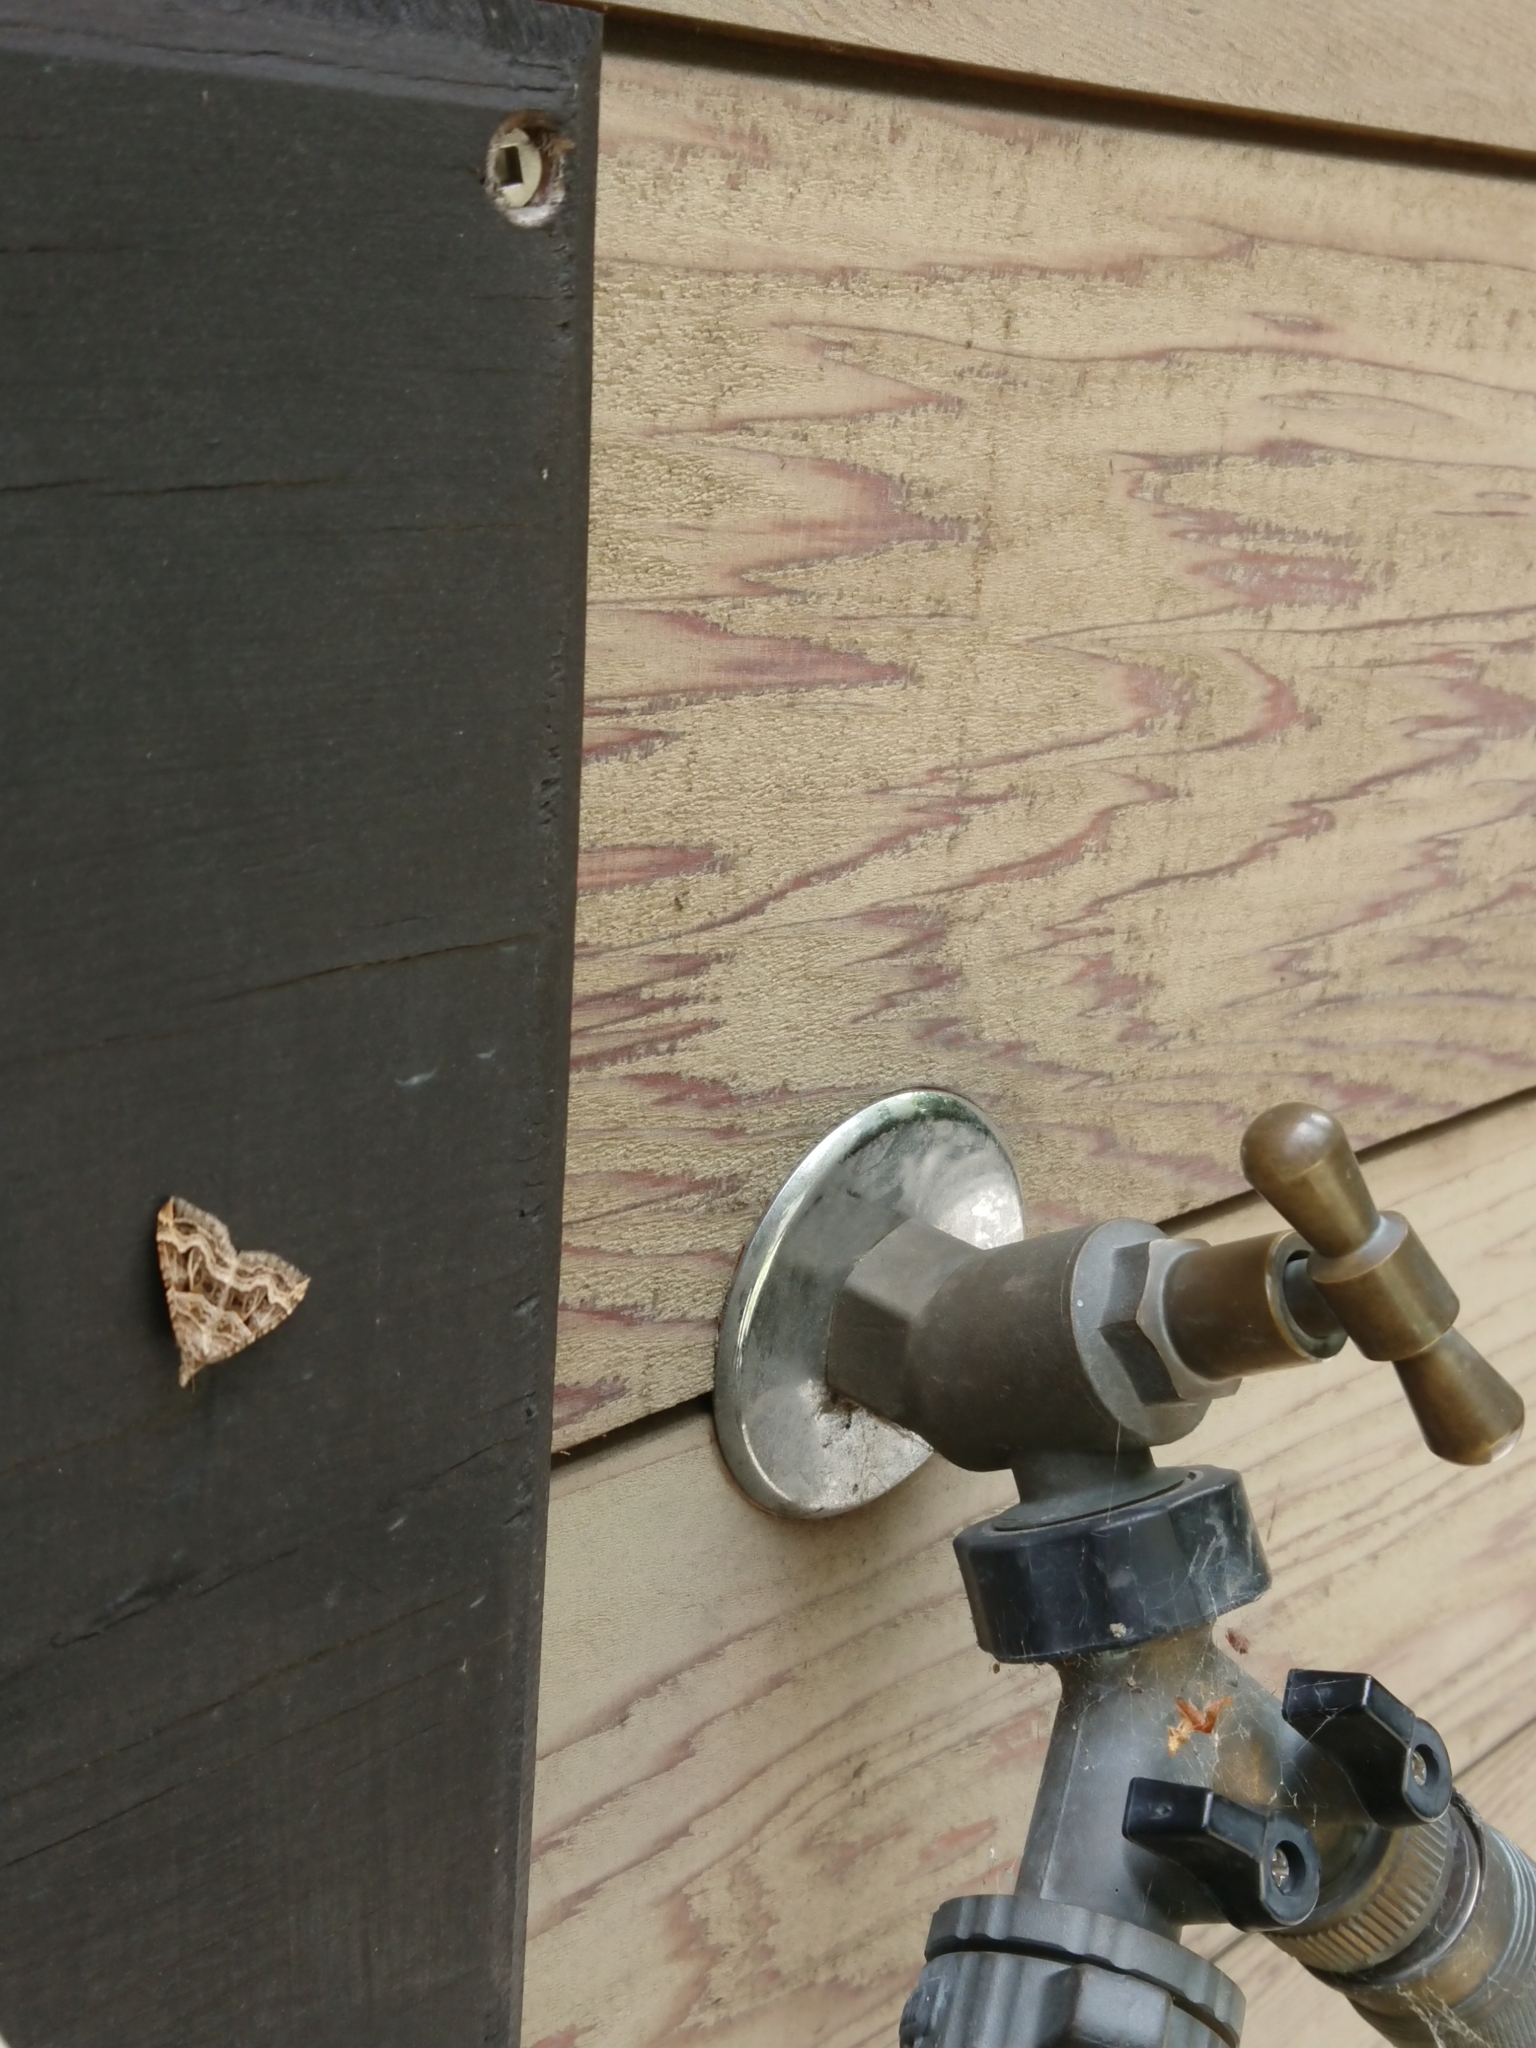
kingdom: Animalia
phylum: Arthropoda
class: Insecta
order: Lepidoptera
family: Geometridae
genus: Xanthorhoe
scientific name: Xanthorhoe semifissata
